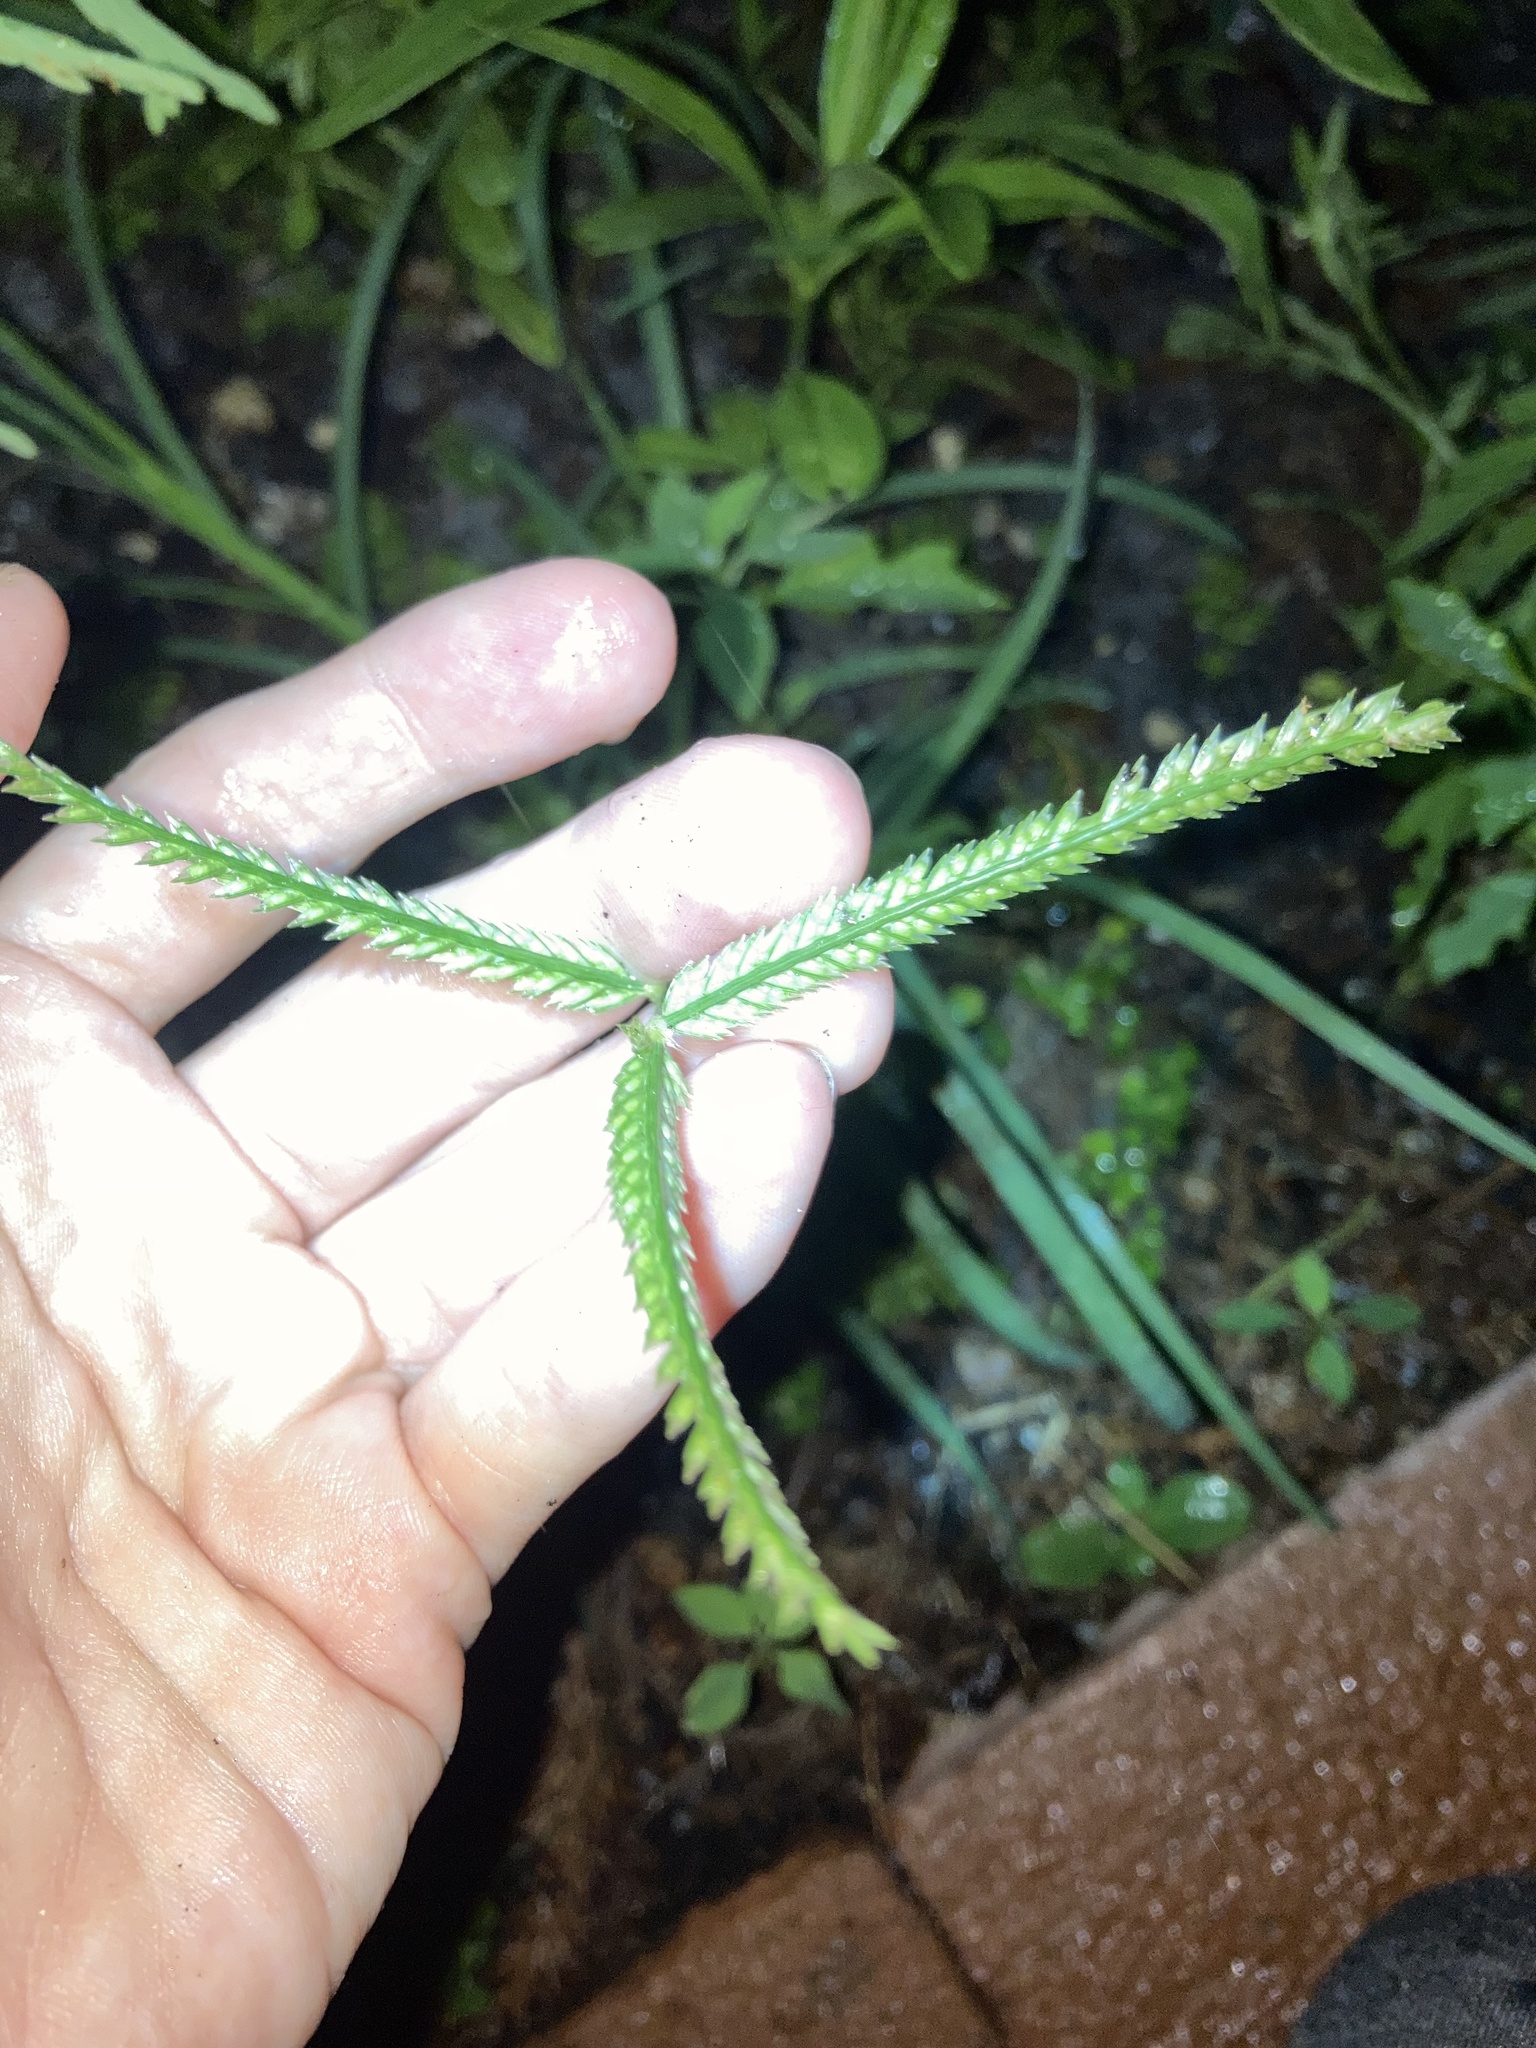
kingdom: Plantae
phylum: Tracheophyta
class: Liliopsida
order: Poales
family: Poaceae
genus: Eleusine
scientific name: Eleusine indica
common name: Yard-grass
